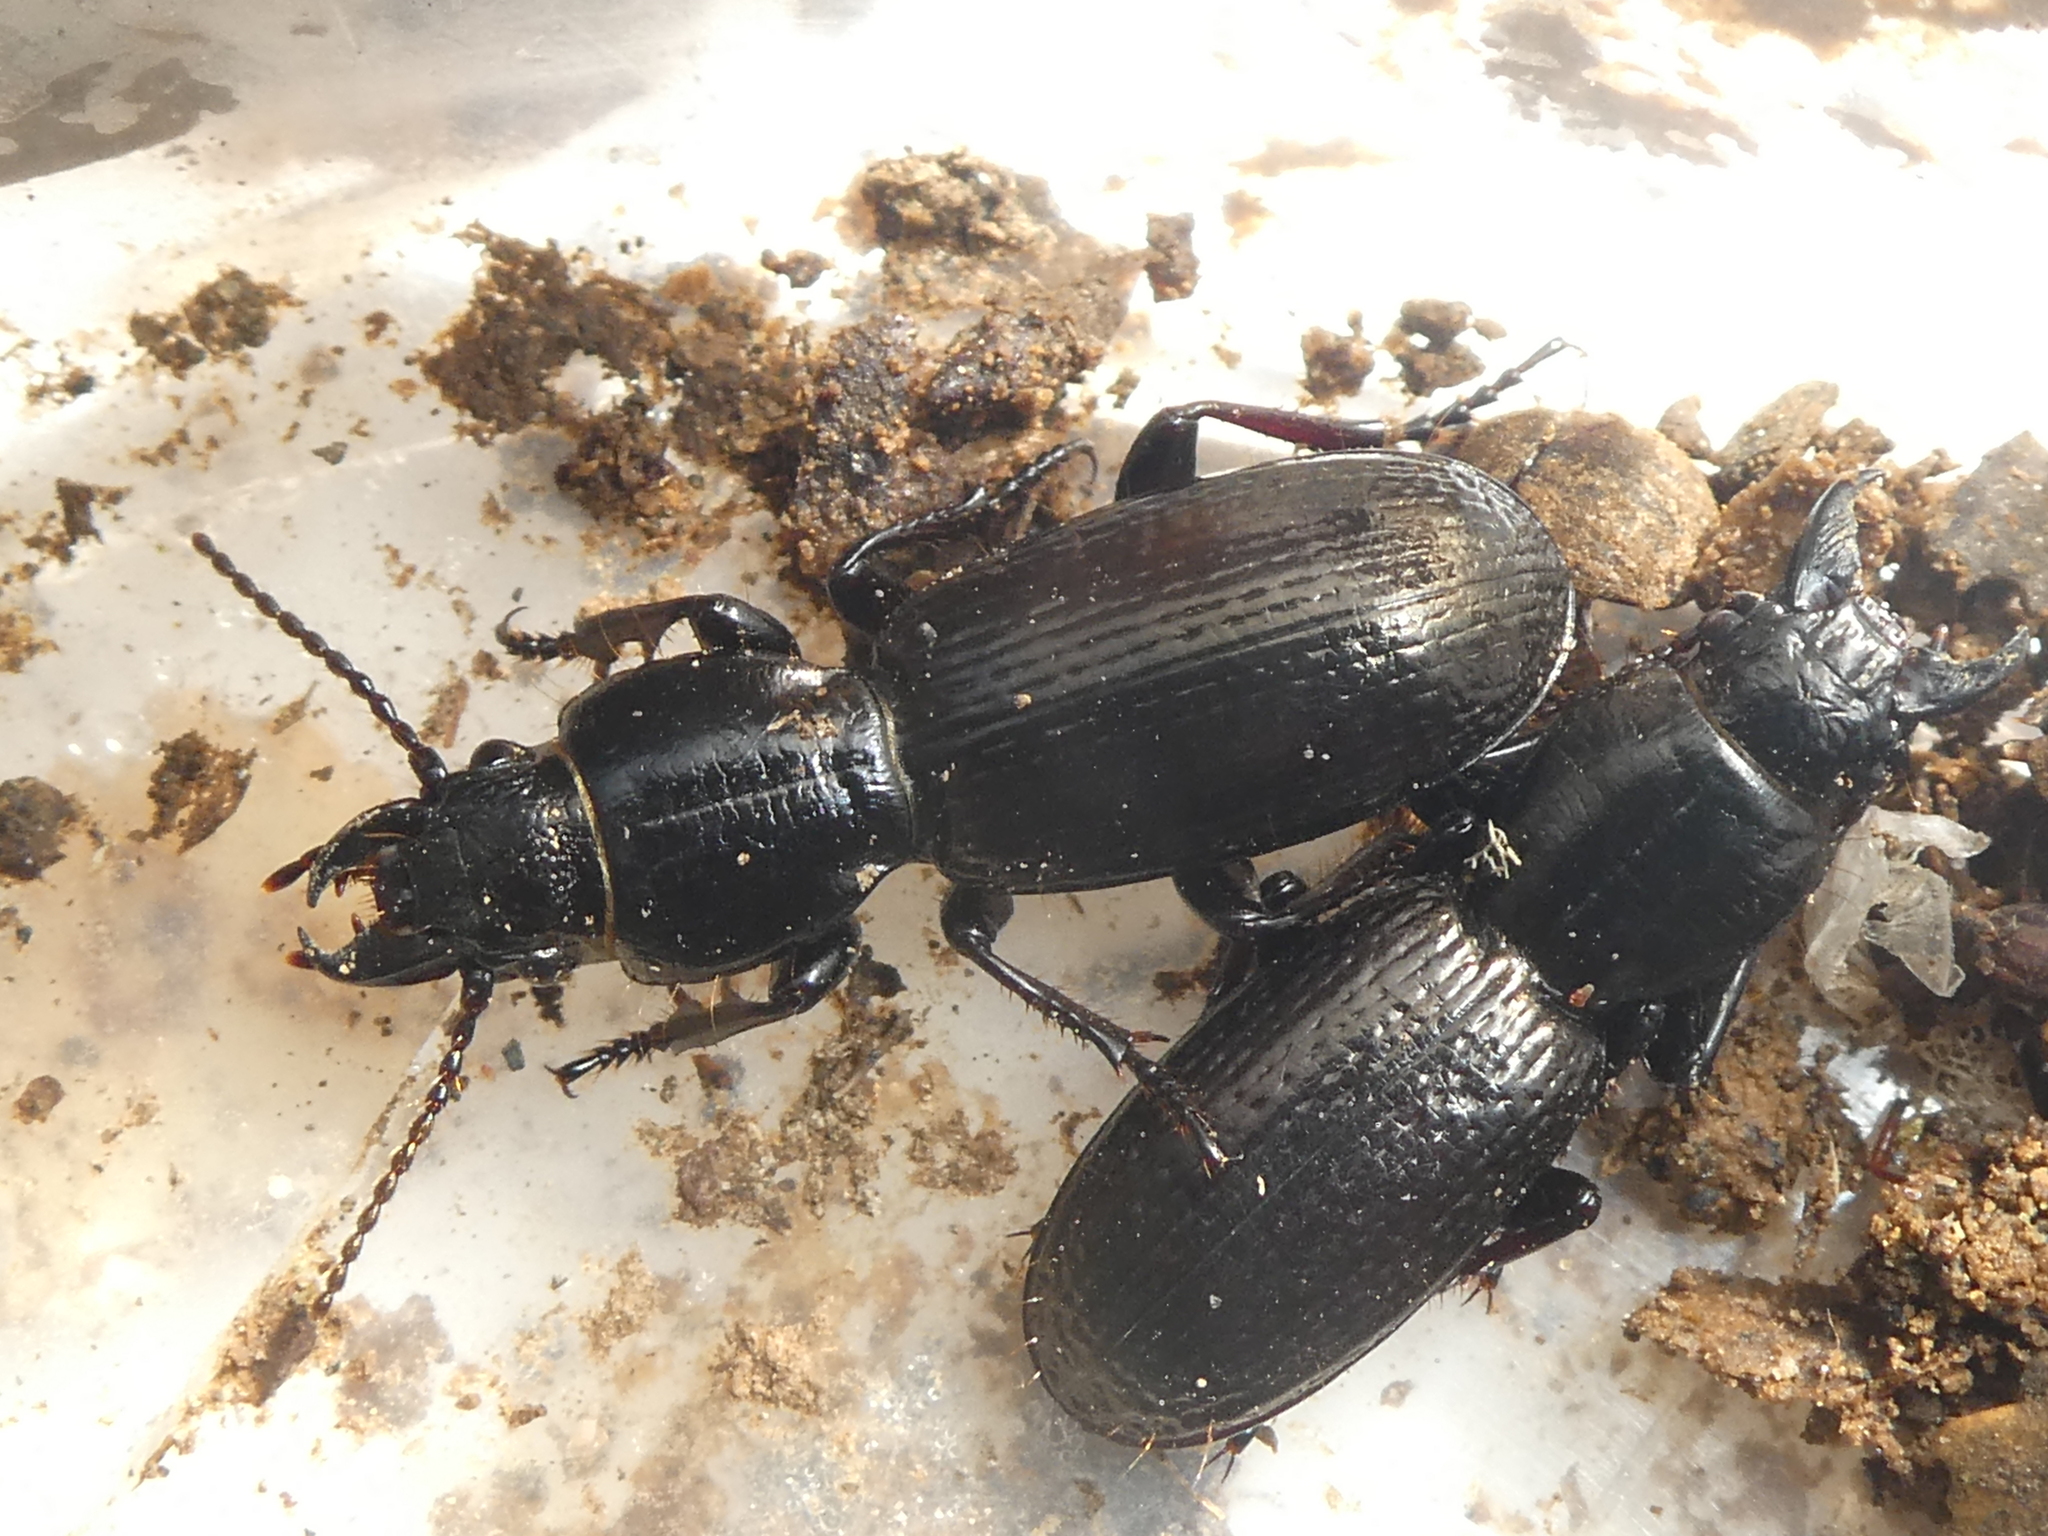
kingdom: Animalia
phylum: Arthropoda
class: Insecta
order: Coleoptera
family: Carabidae
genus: Mecodema
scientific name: Mecodema longicolle
